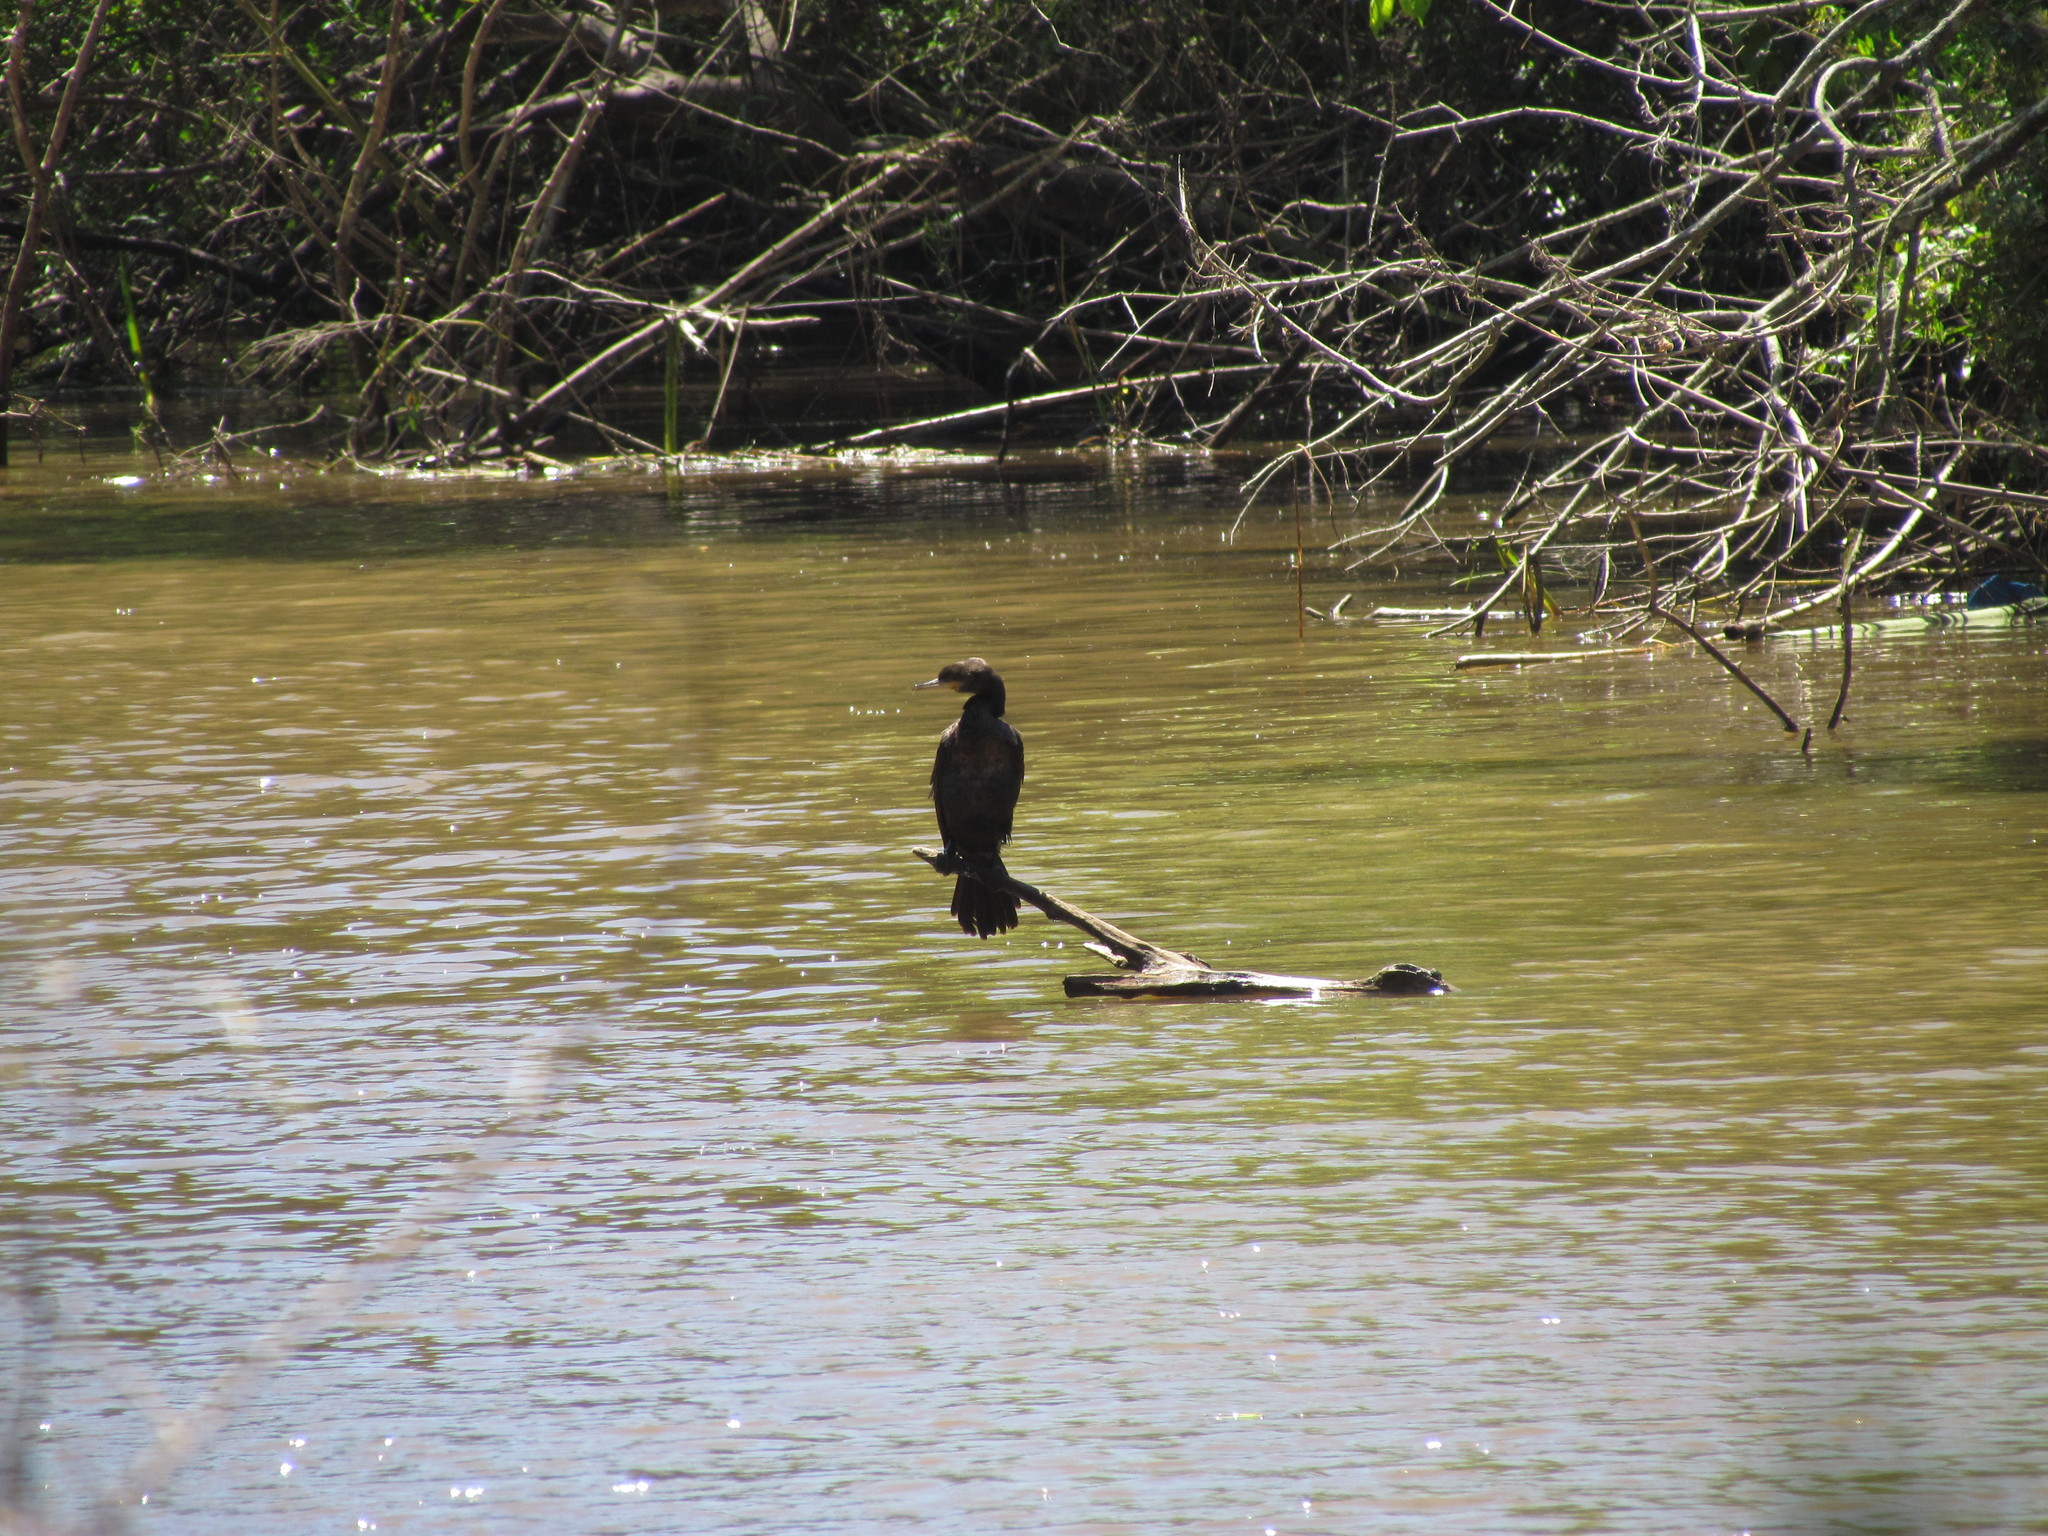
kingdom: Animalia
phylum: Chordata
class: Aves
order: Suliformes
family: Phalacrocoracidae
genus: Phalacrocorax
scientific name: Phalacrocorax brasilianus
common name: Neotropic cormorant
